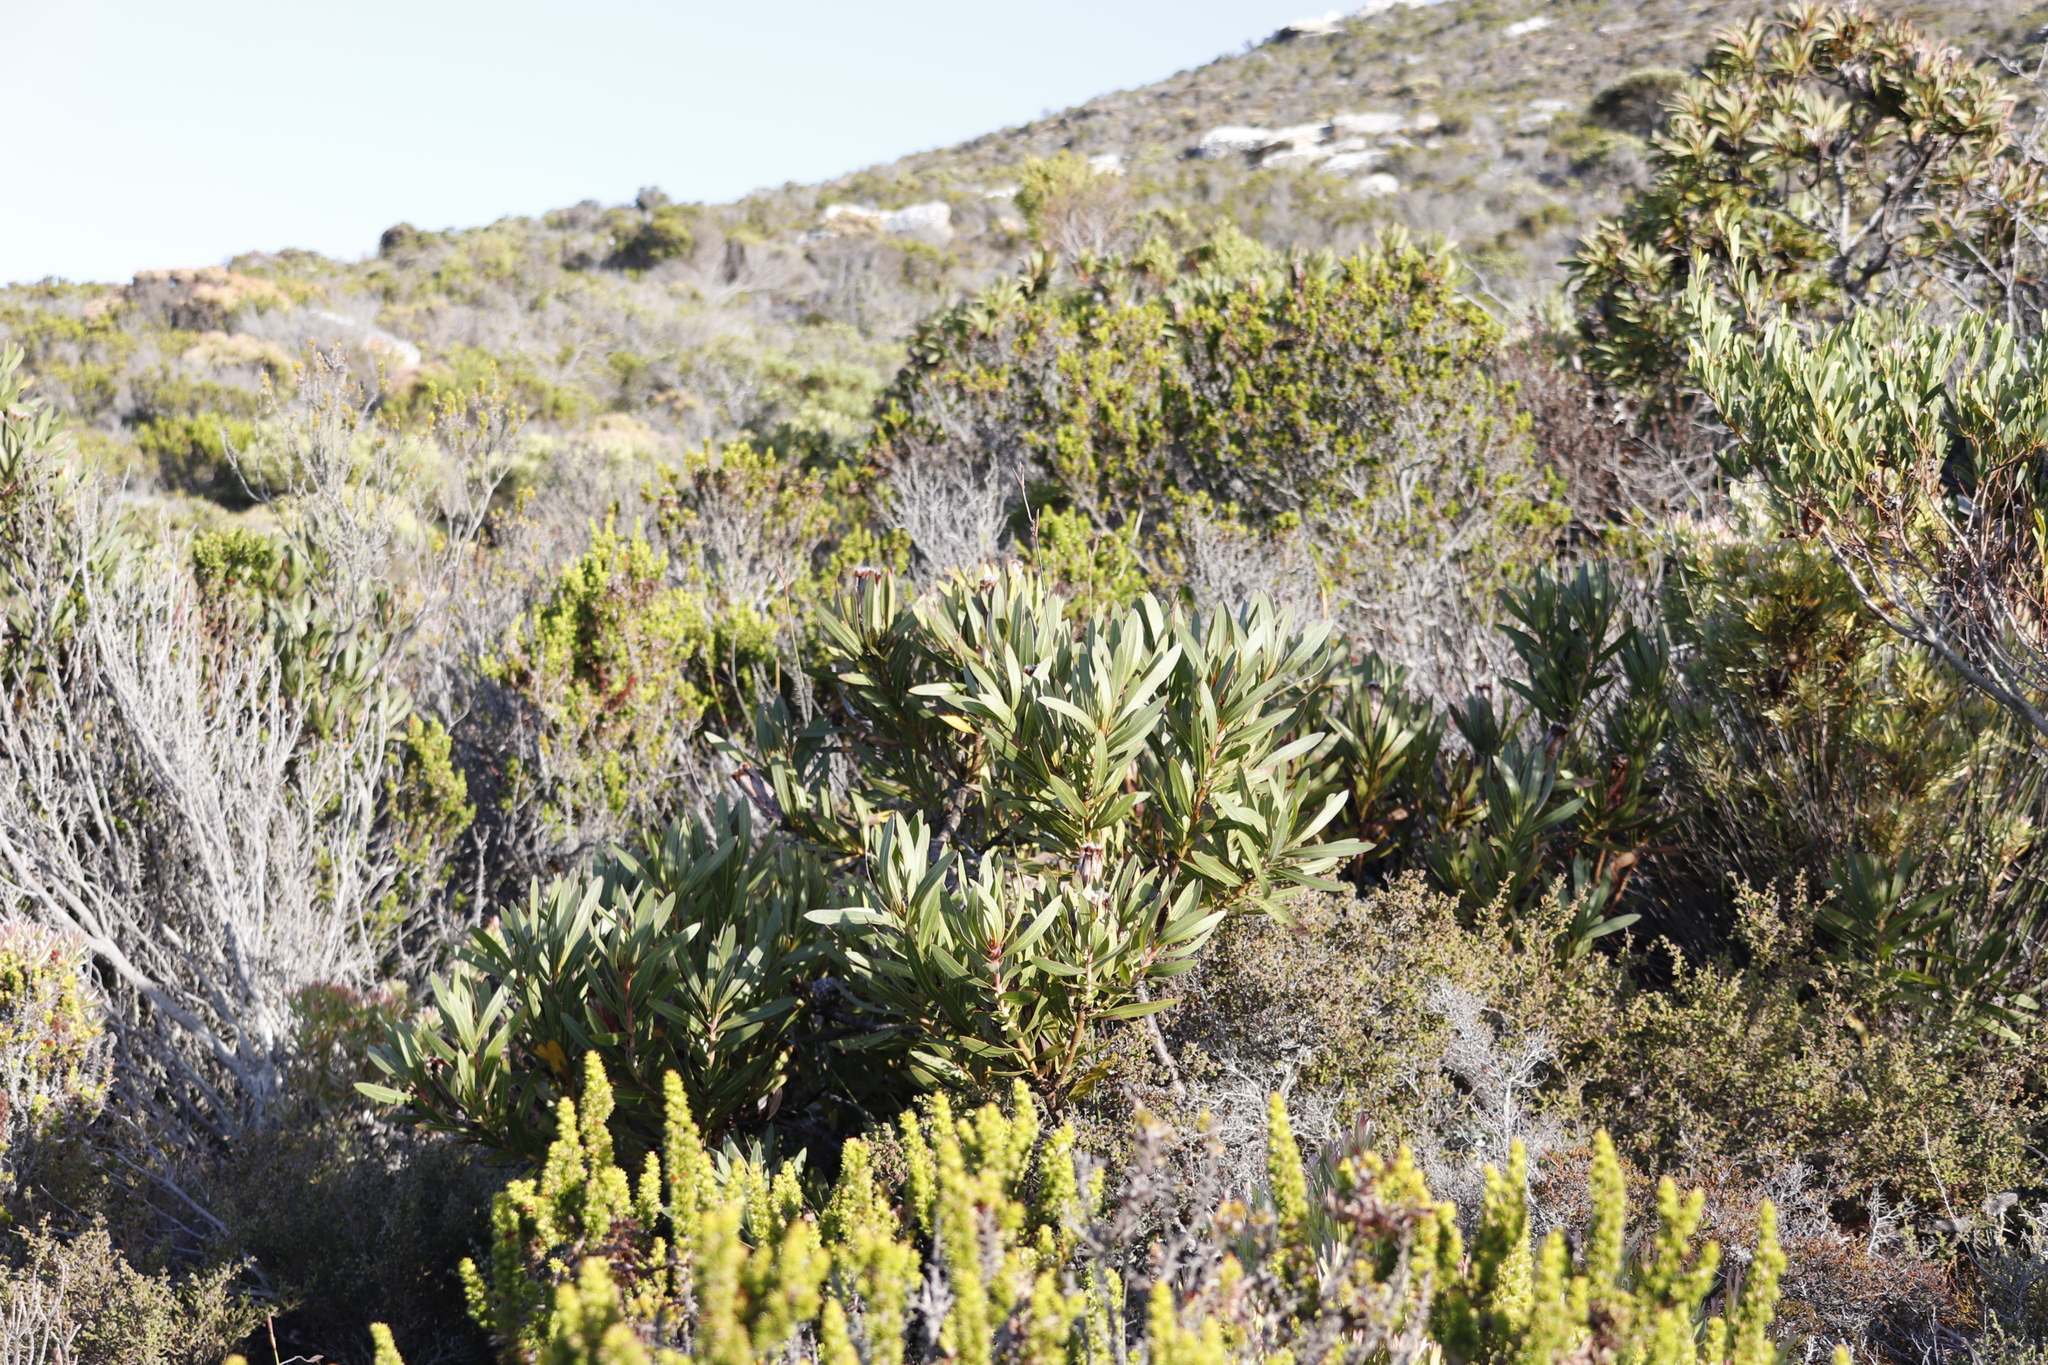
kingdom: Plantae
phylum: Tracheophyta
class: Magnoliopsida
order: Proteales
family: Proteaceae
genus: Protea
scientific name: Protea lepidocarpodendron
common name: Black-bearded protea
